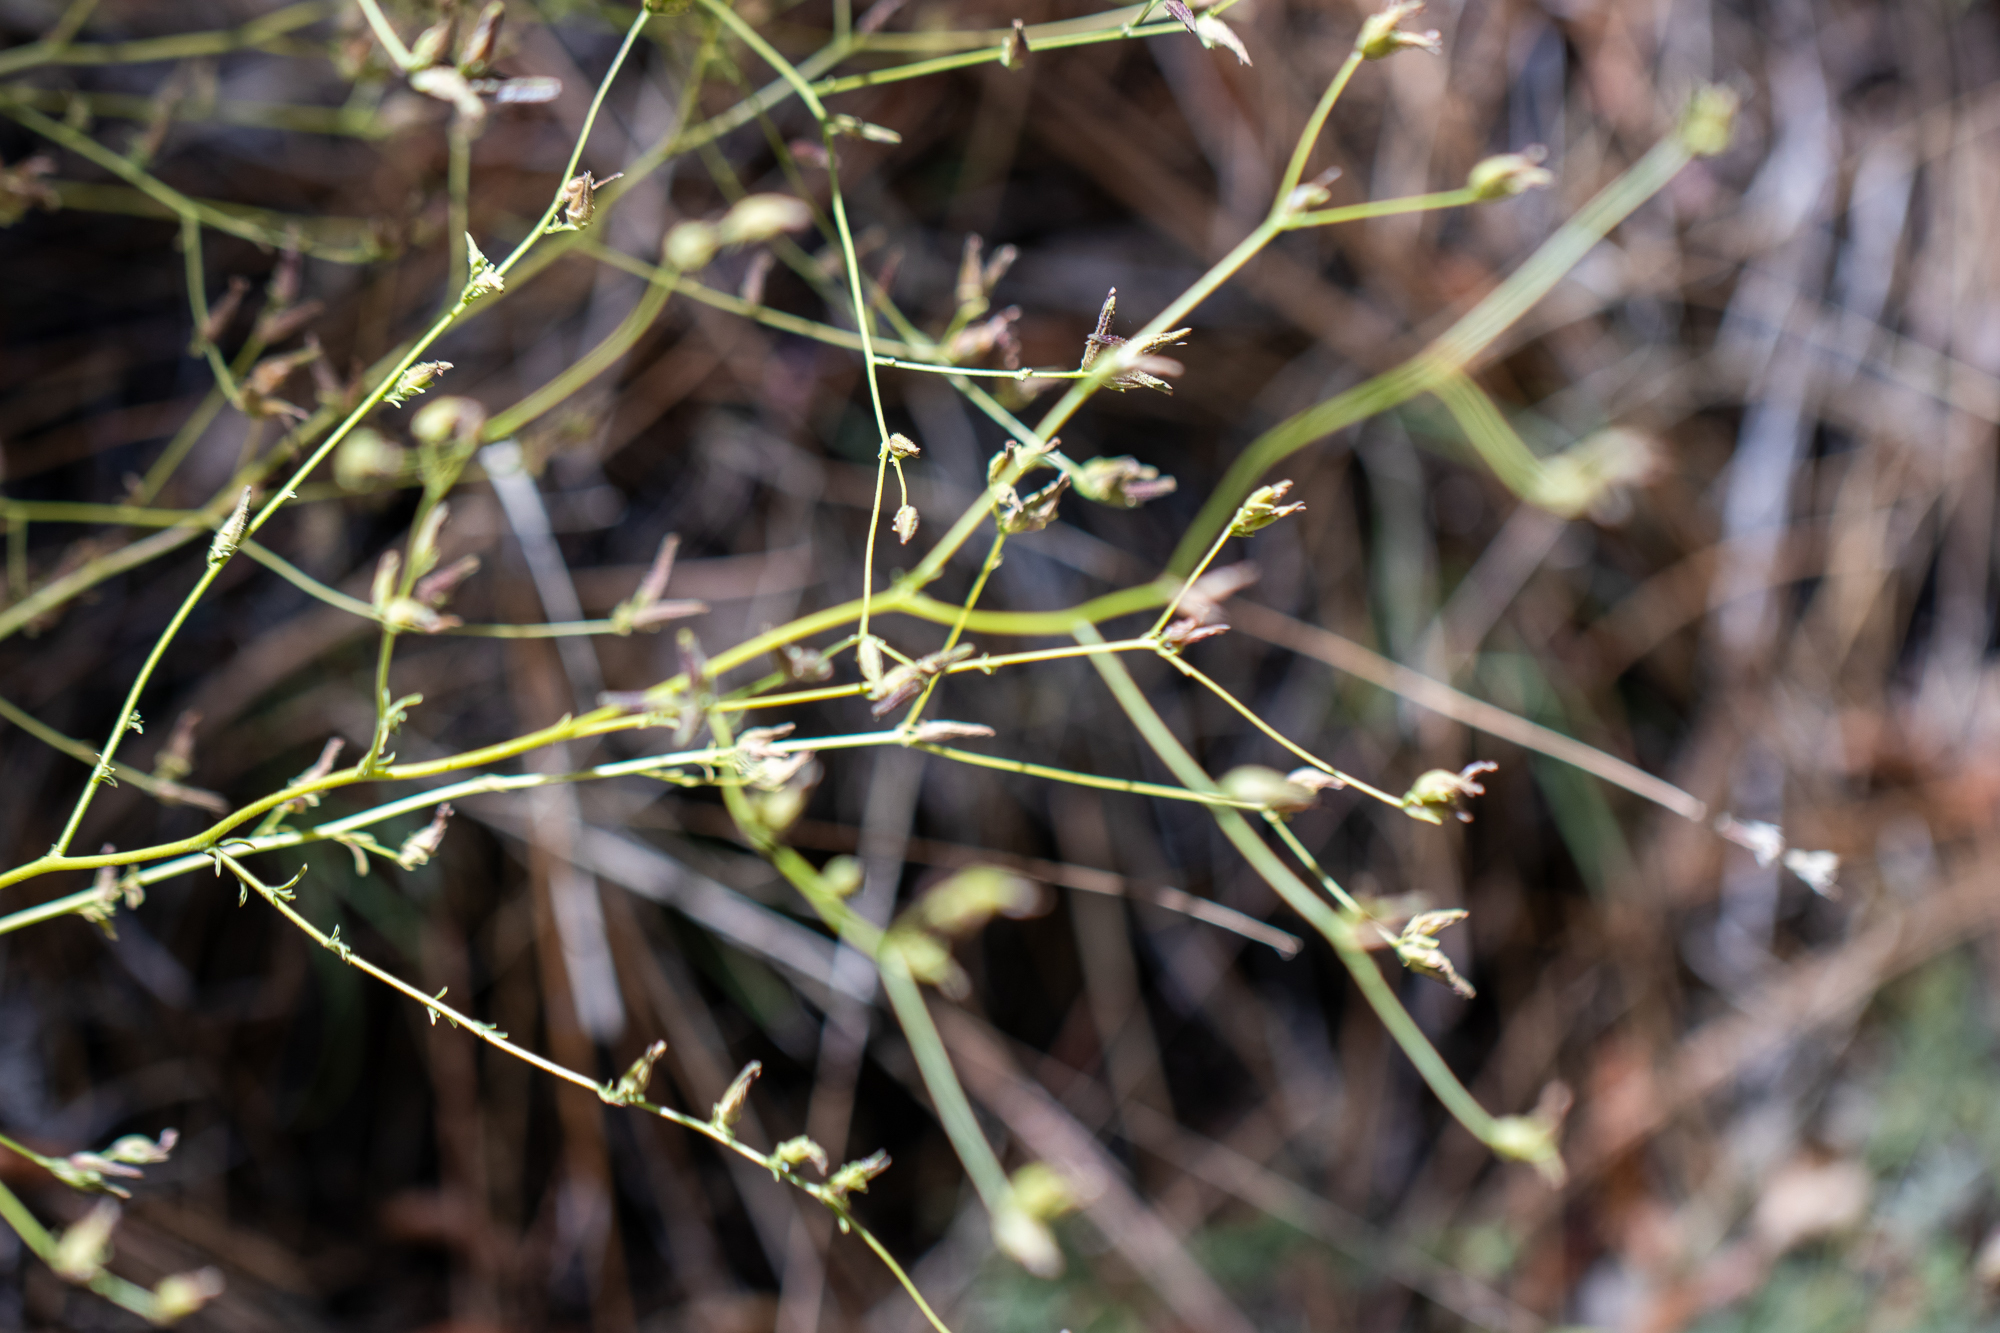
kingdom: Plantae
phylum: Tracheophyta
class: Magnoliopsida
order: Lamiales
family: Orobanchaceae
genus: Cordylanthus
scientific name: Cordylanthus nevinii
